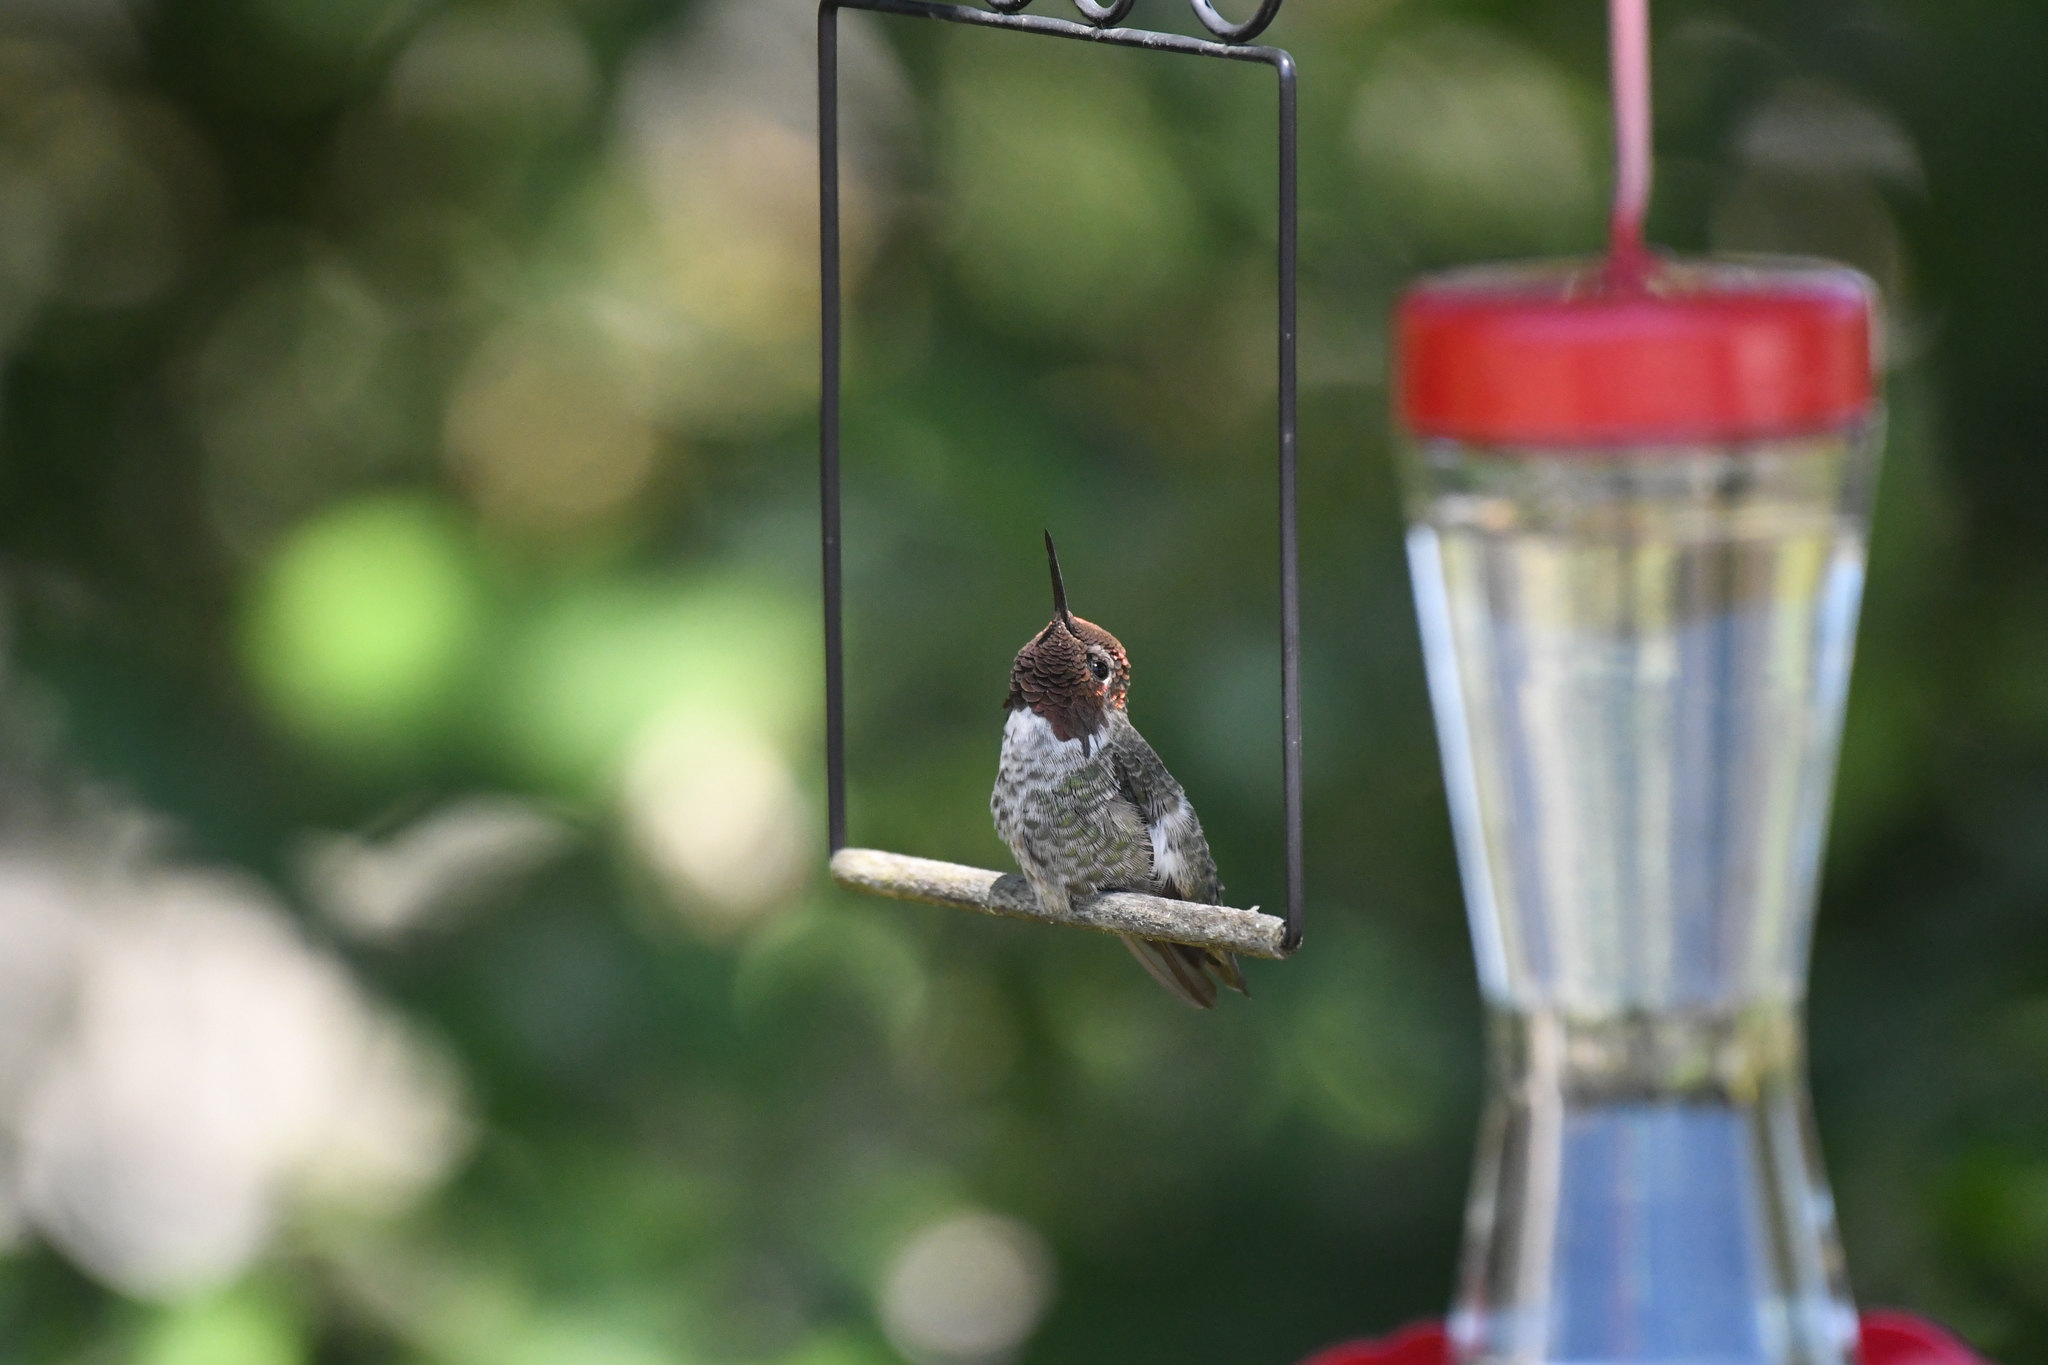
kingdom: Animalia
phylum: Chordata
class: Aves
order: Apodiformes
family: Trochilidae
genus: Calypte
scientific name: Calypte anna
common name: Anna's hummingbird
